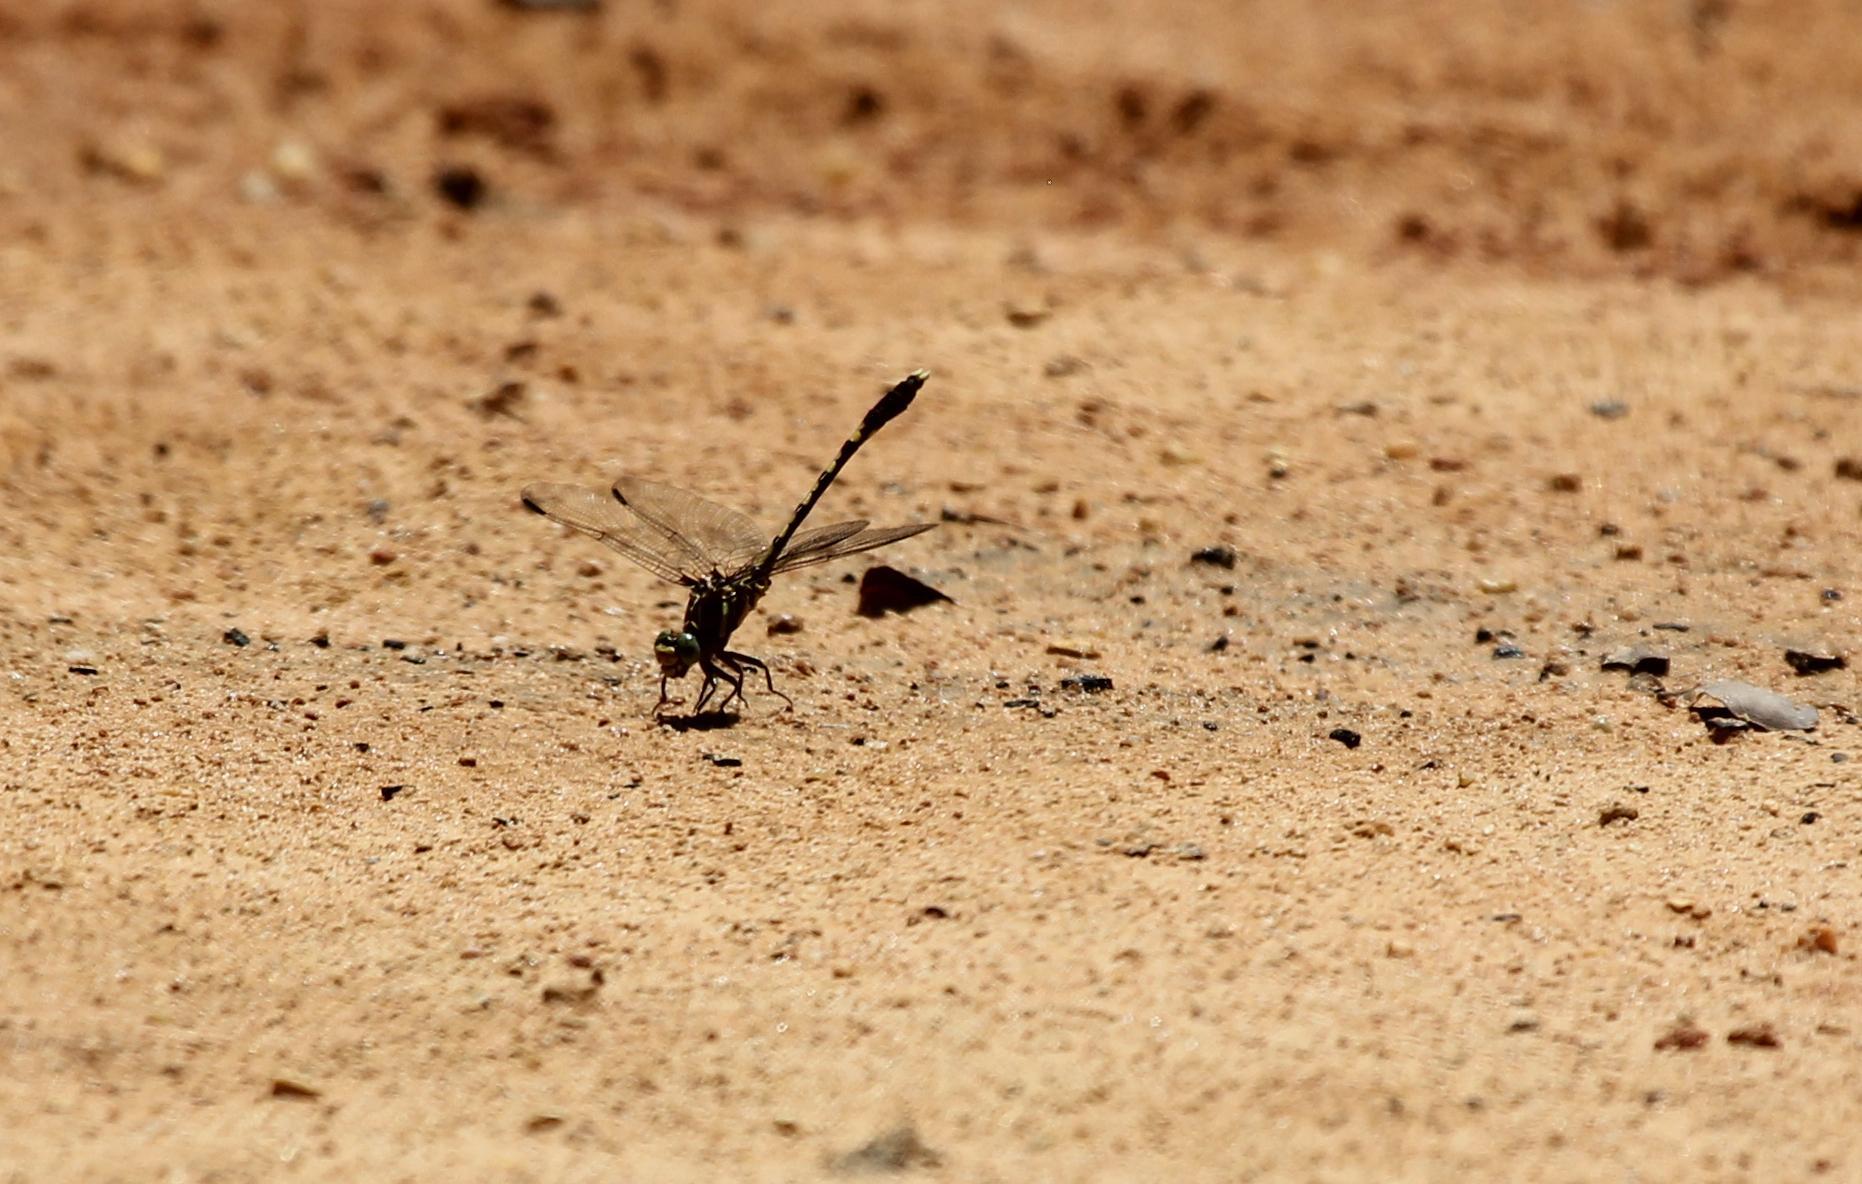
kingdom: Animalia
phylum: Arthropoda
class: Insecta
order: Odonata
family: Gomphidae
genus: Progomphus
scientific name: Progomphus obscurus
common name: Common sanddragon
